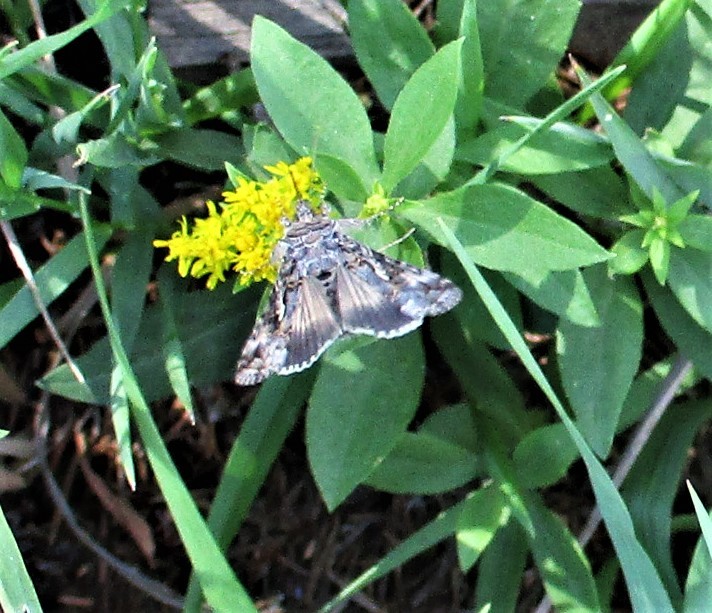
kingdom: Animalia
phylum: Arthropoda
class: Insecta
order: Lepidoptera
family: Noctuidae
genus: Autographa
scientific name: Autographa californica
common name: Alfalfa looper
